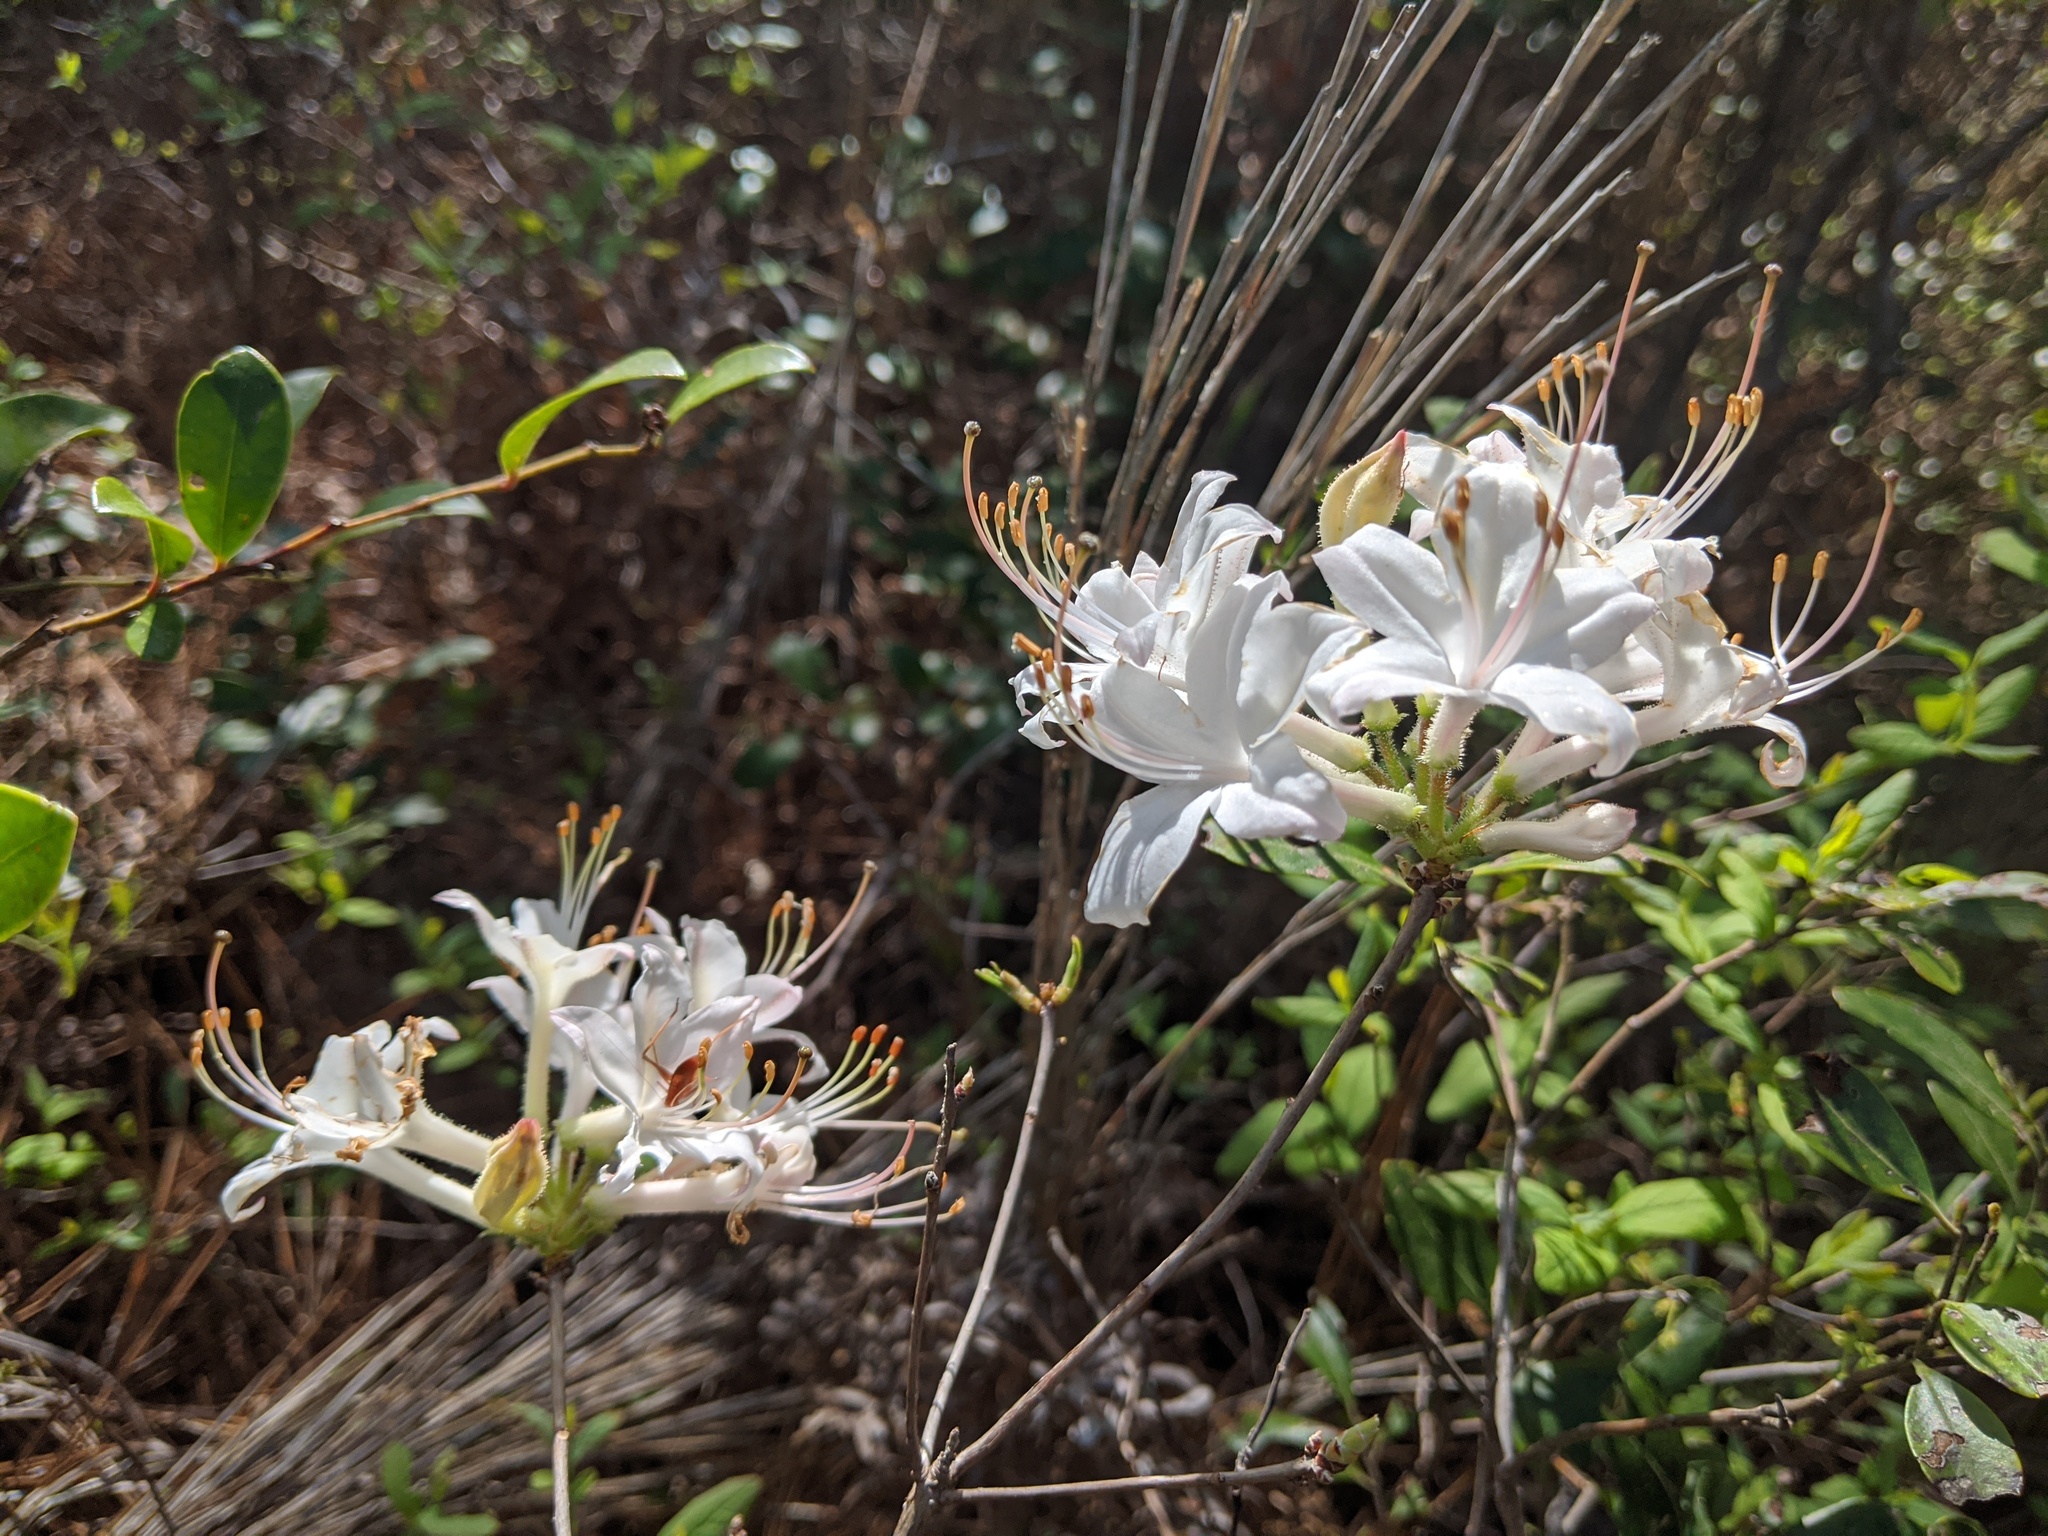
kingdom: Plantae
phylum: Tracheophyta
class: Magnoliopsida
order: Ericales
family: Ericaceae
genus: Rhododendron
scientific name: Rhododendron atlanticum
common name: Dwarf azalea
